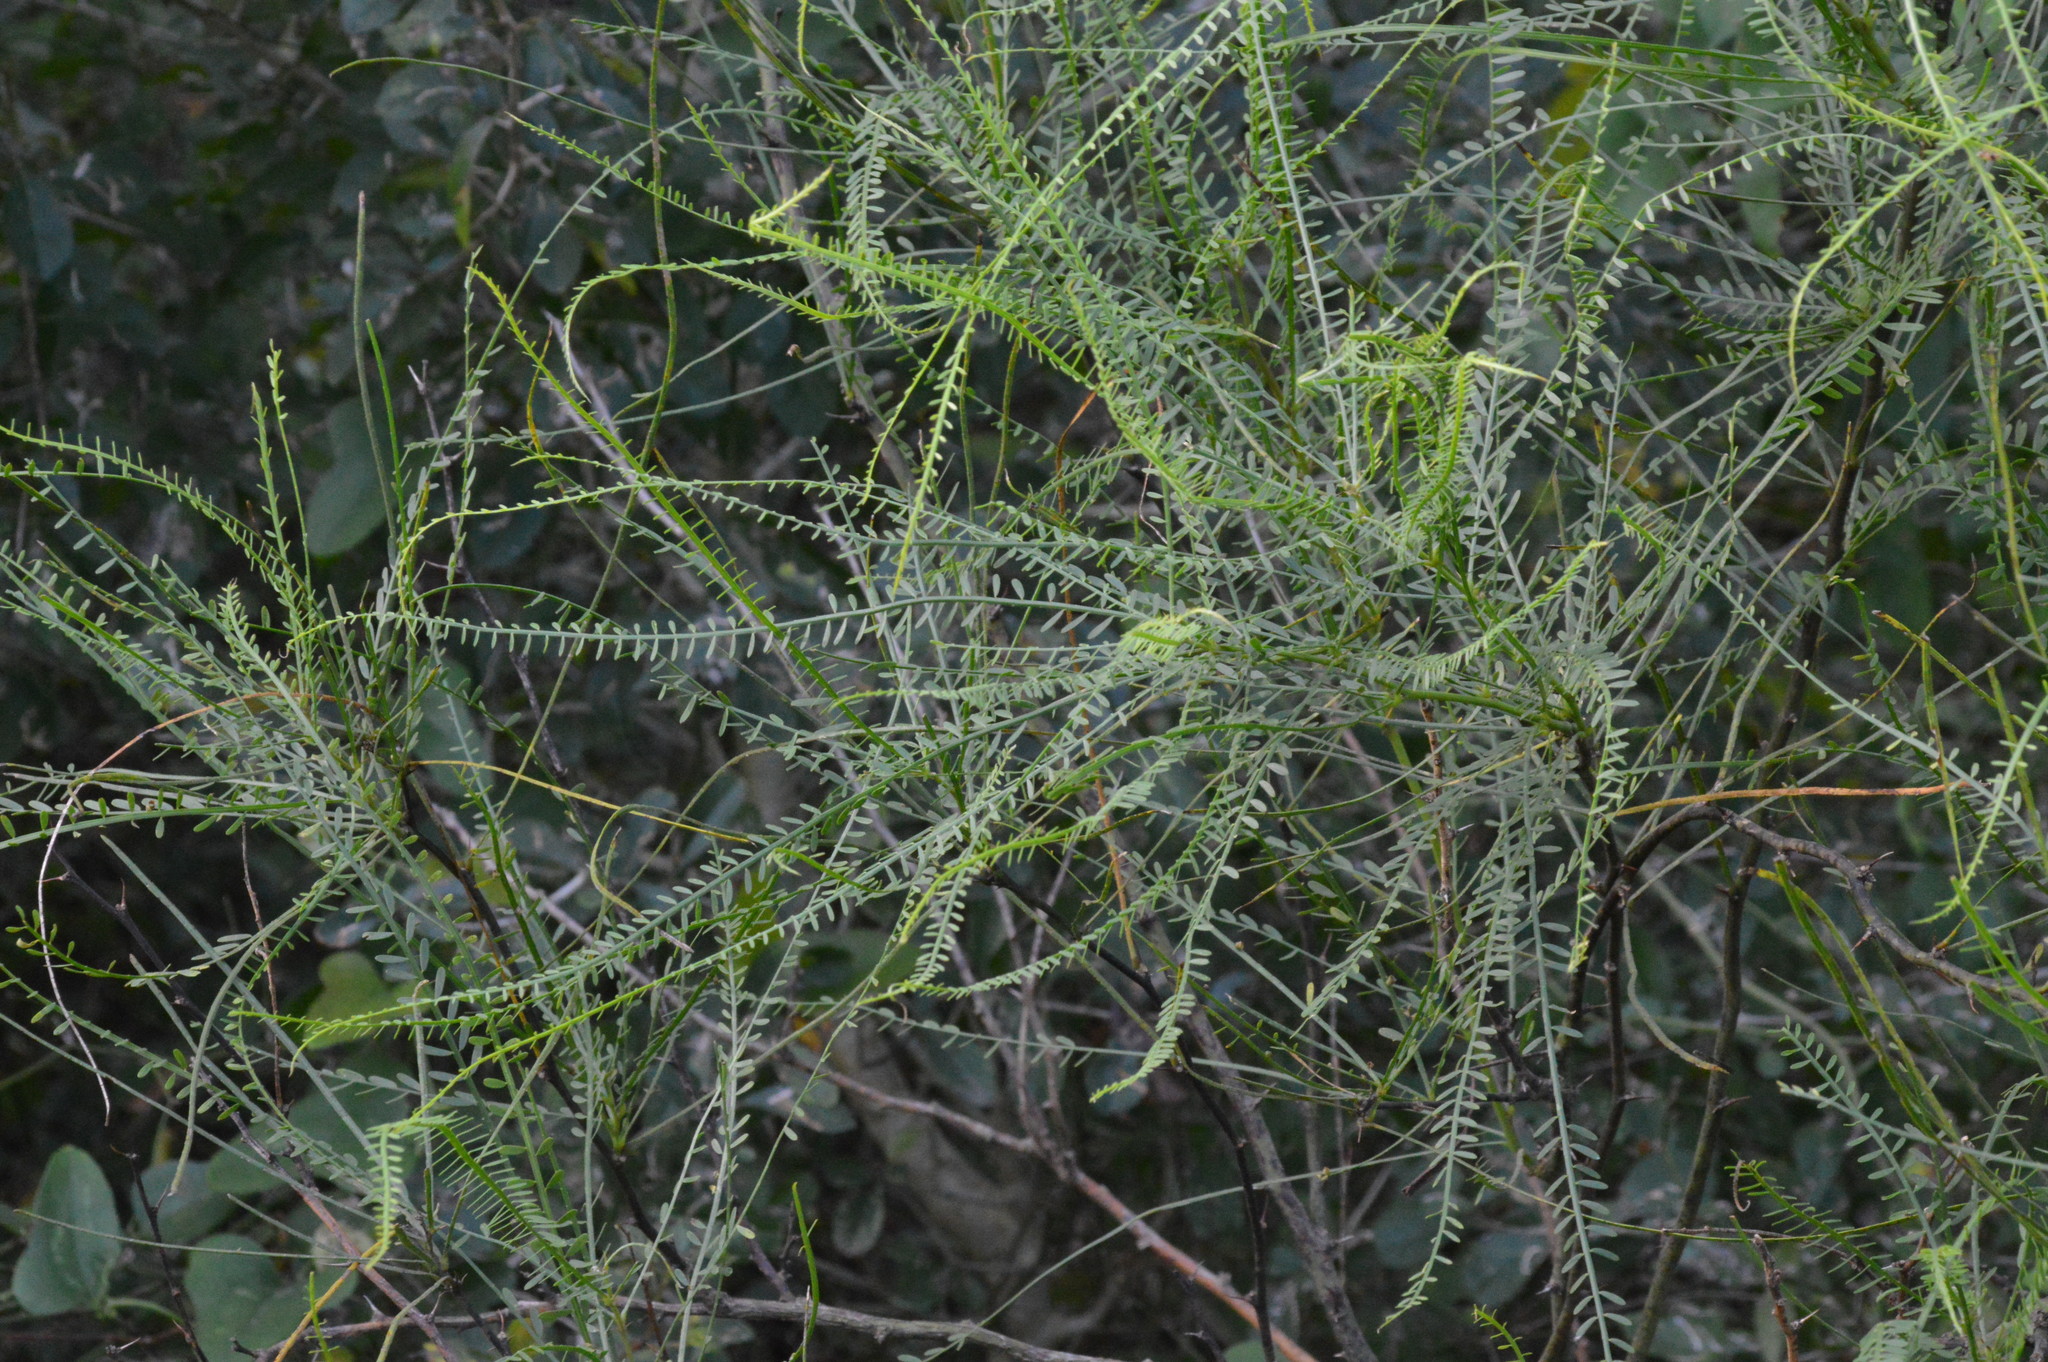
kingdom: Plantae
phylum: Tracheophyta
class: Magnoliopsida
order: Fabales
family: Fabaceae
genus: Parkinsonia
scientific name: Parkinsonia aculeata
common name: Jerusalem thorn
